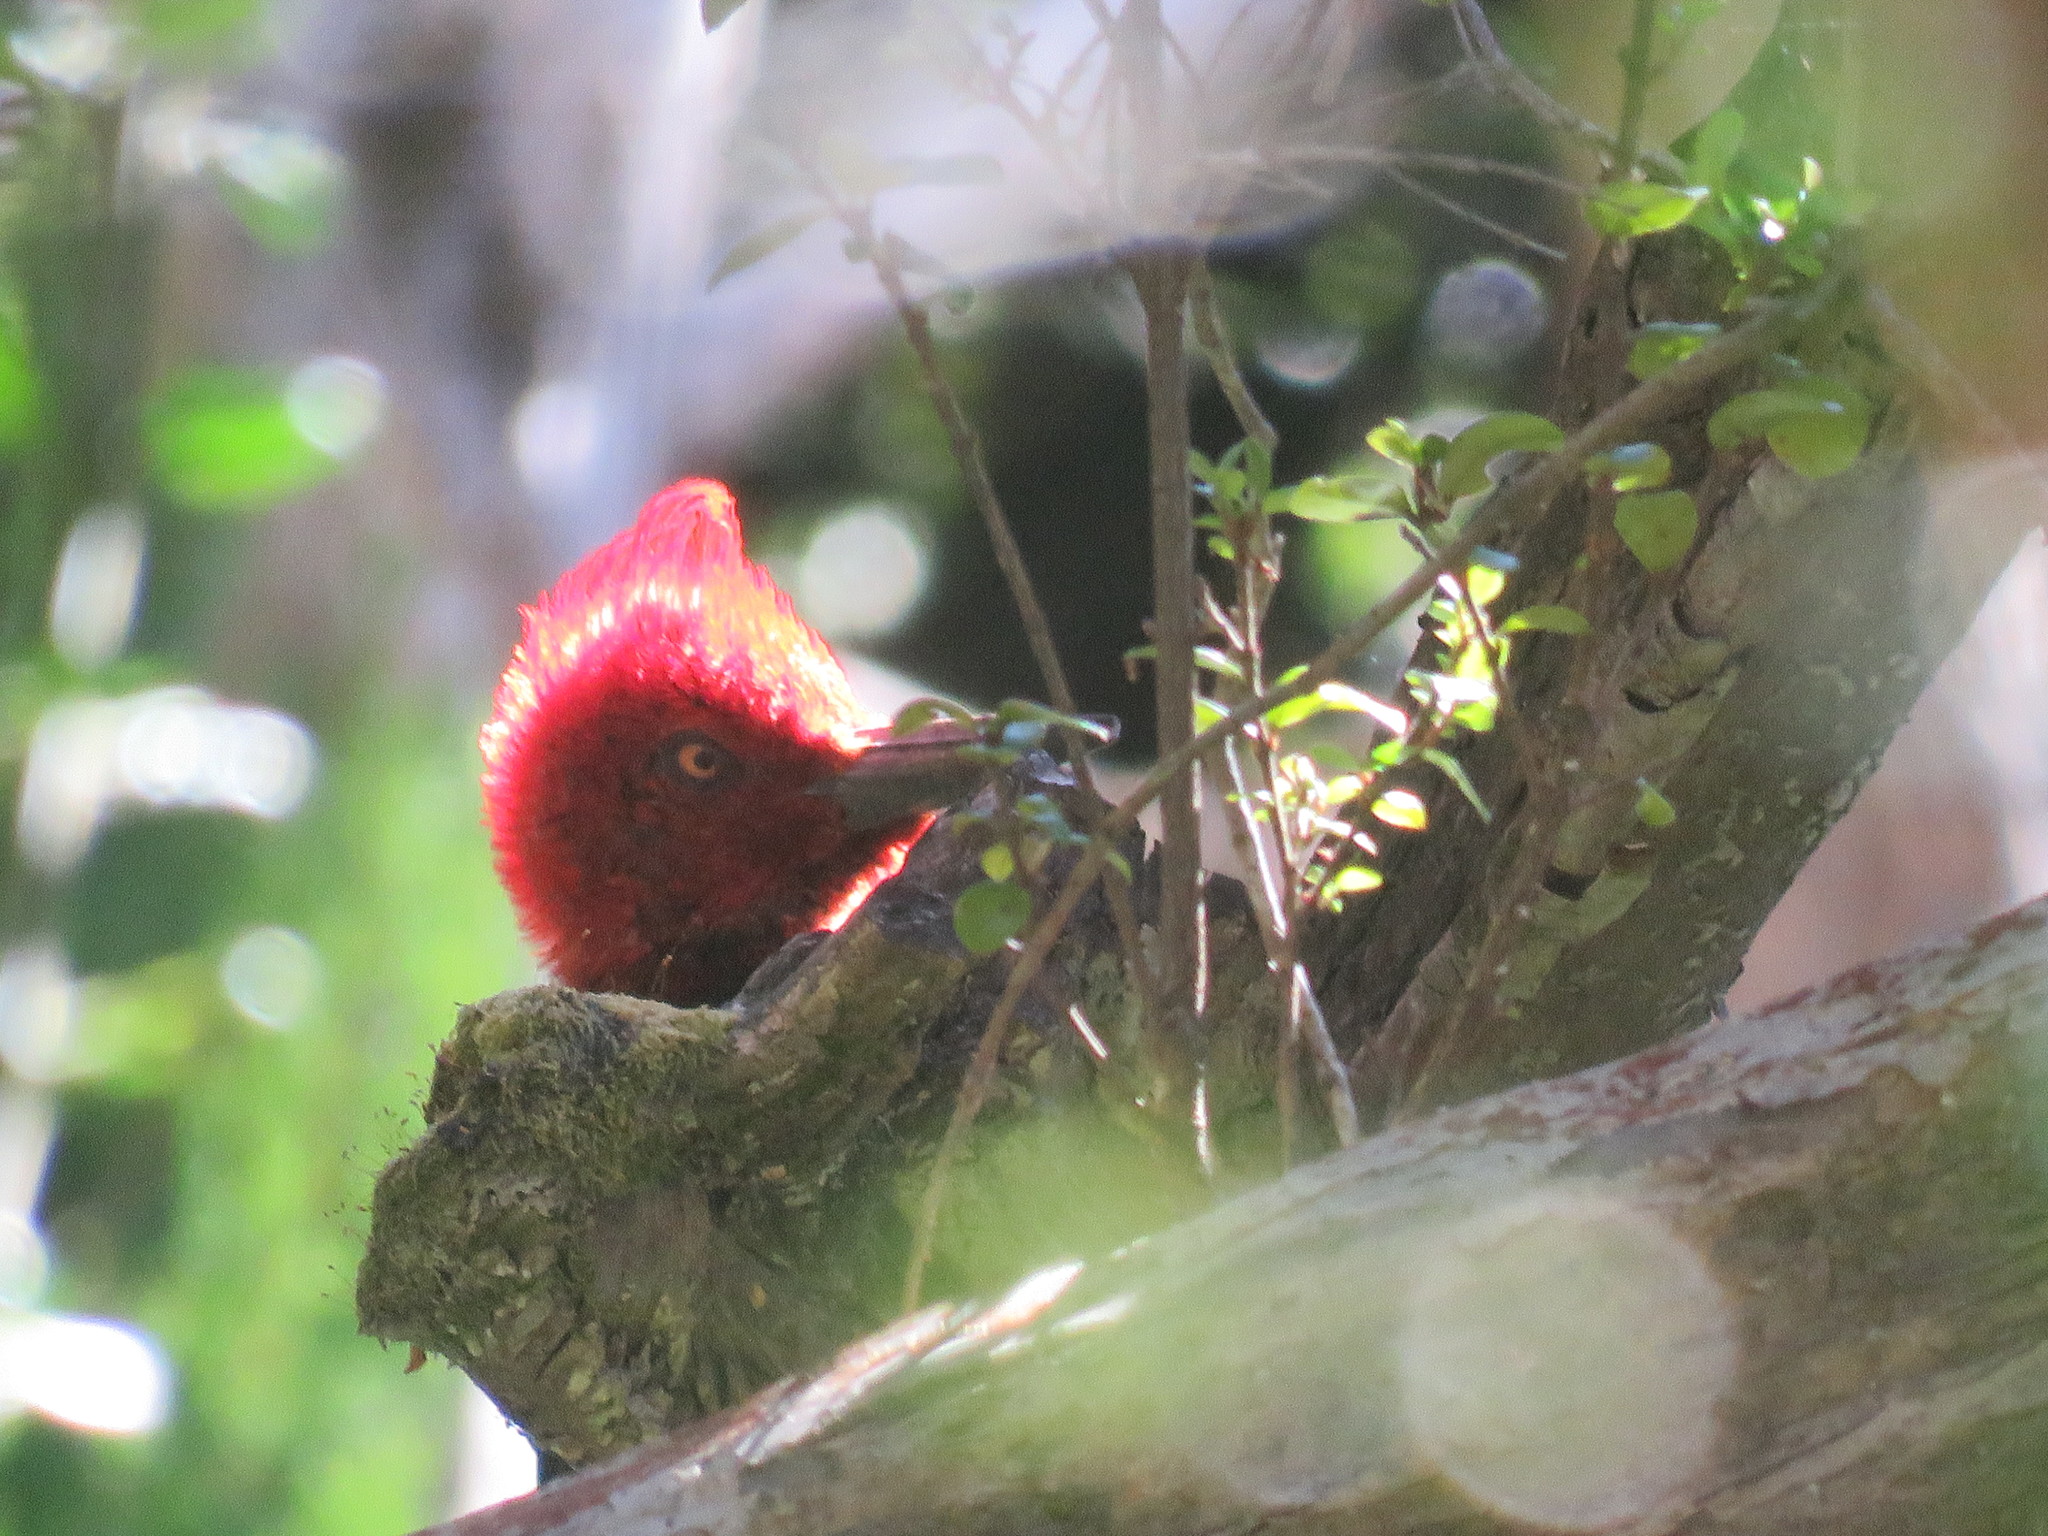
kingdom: Animalia
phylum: Chordata
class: Aves
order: Piciformes
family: Picidae
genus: Campephilus
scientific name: Campephilus magellanicus
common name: Magellanic woodpecker
